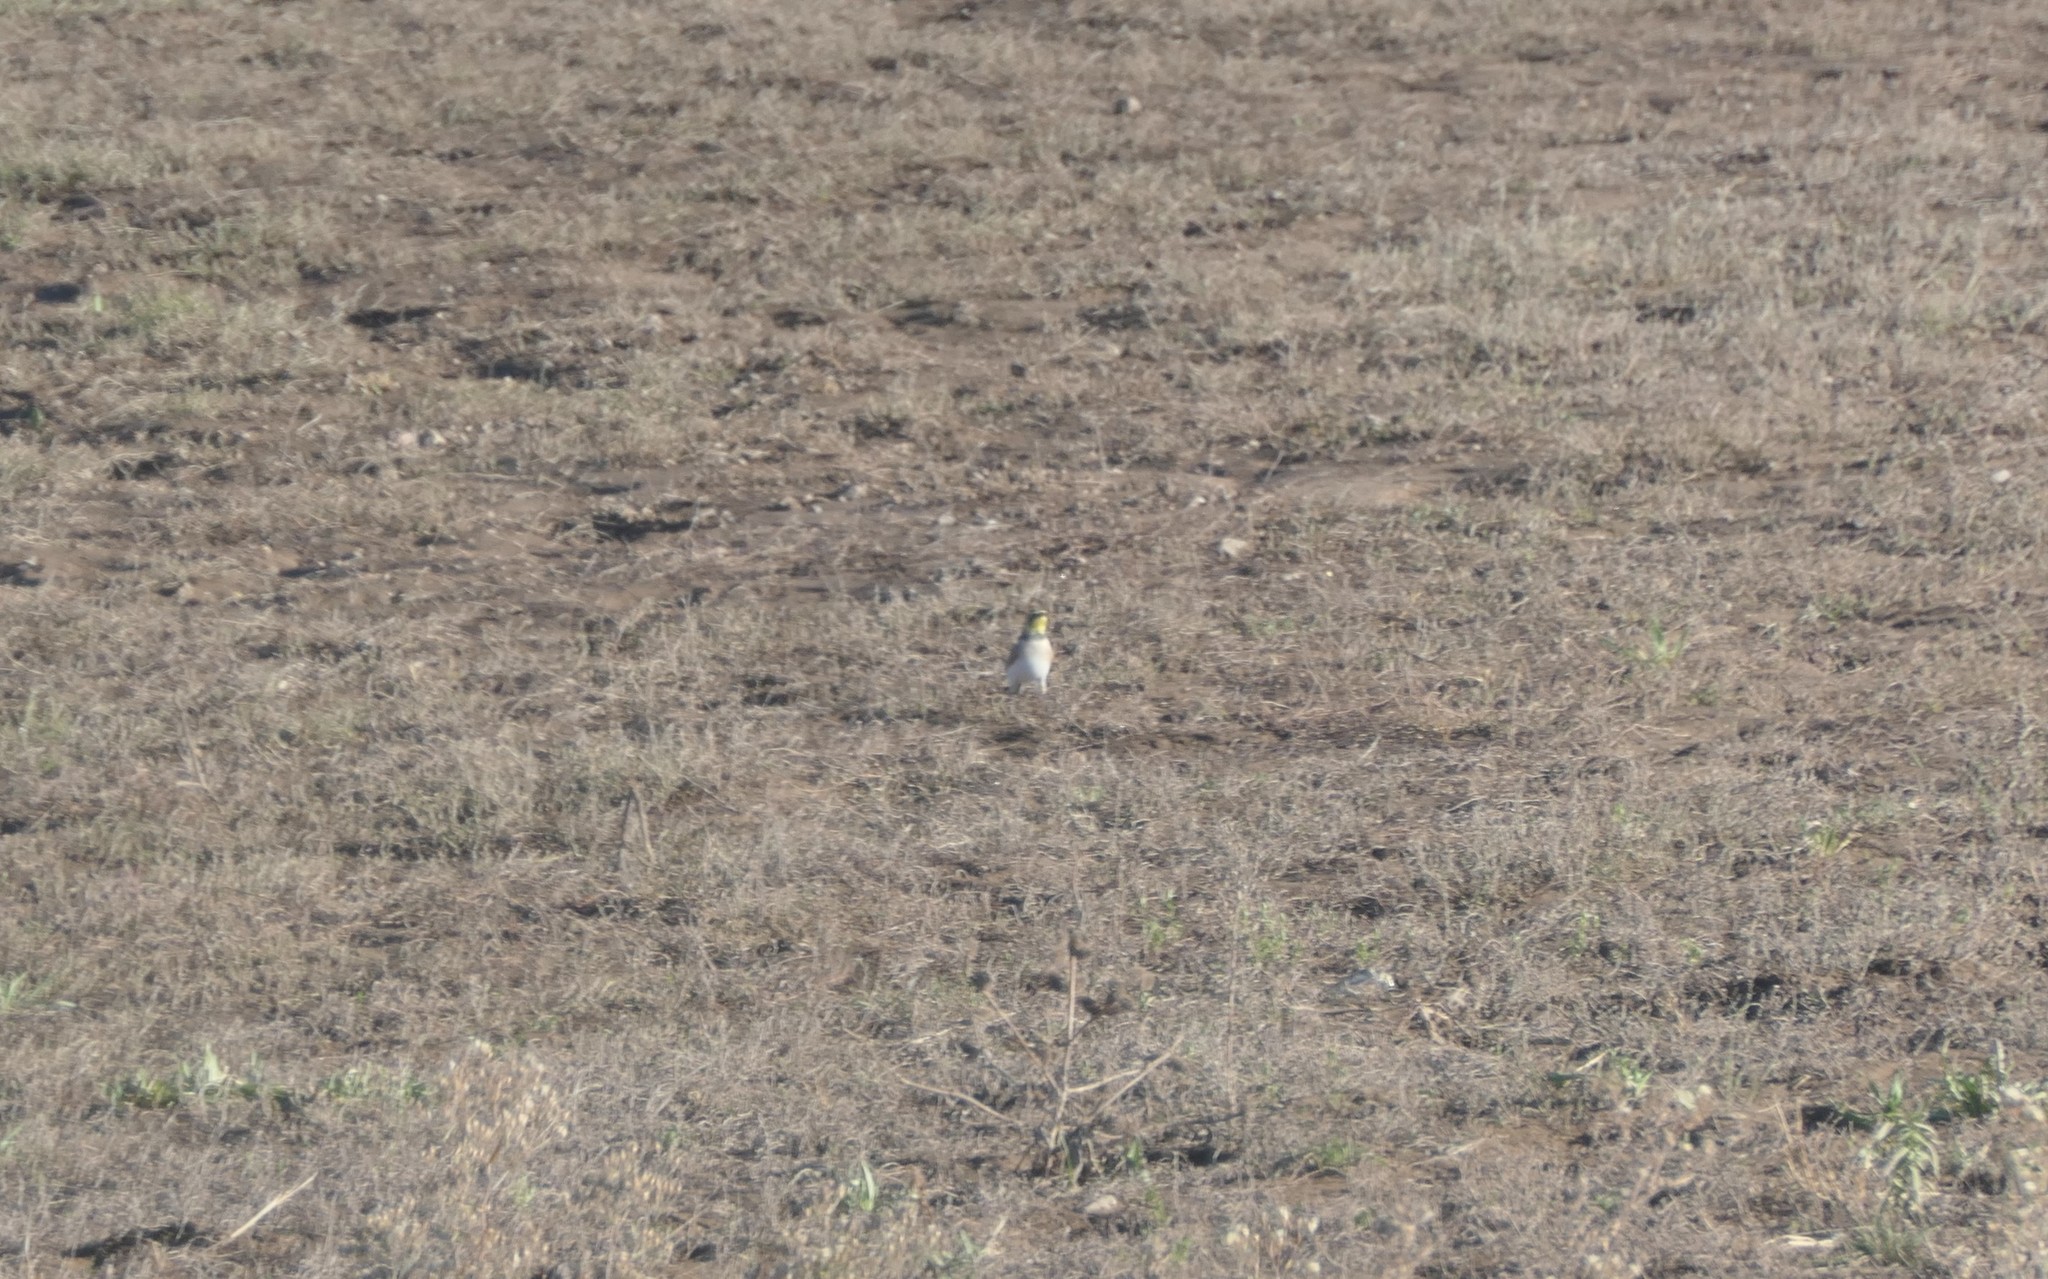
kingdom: Animalia
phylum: Chordata
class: Aves
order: Passeriformes
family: Alaudidae
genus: Eremophila
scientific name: Eremophila alpestris
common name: Horned lark
